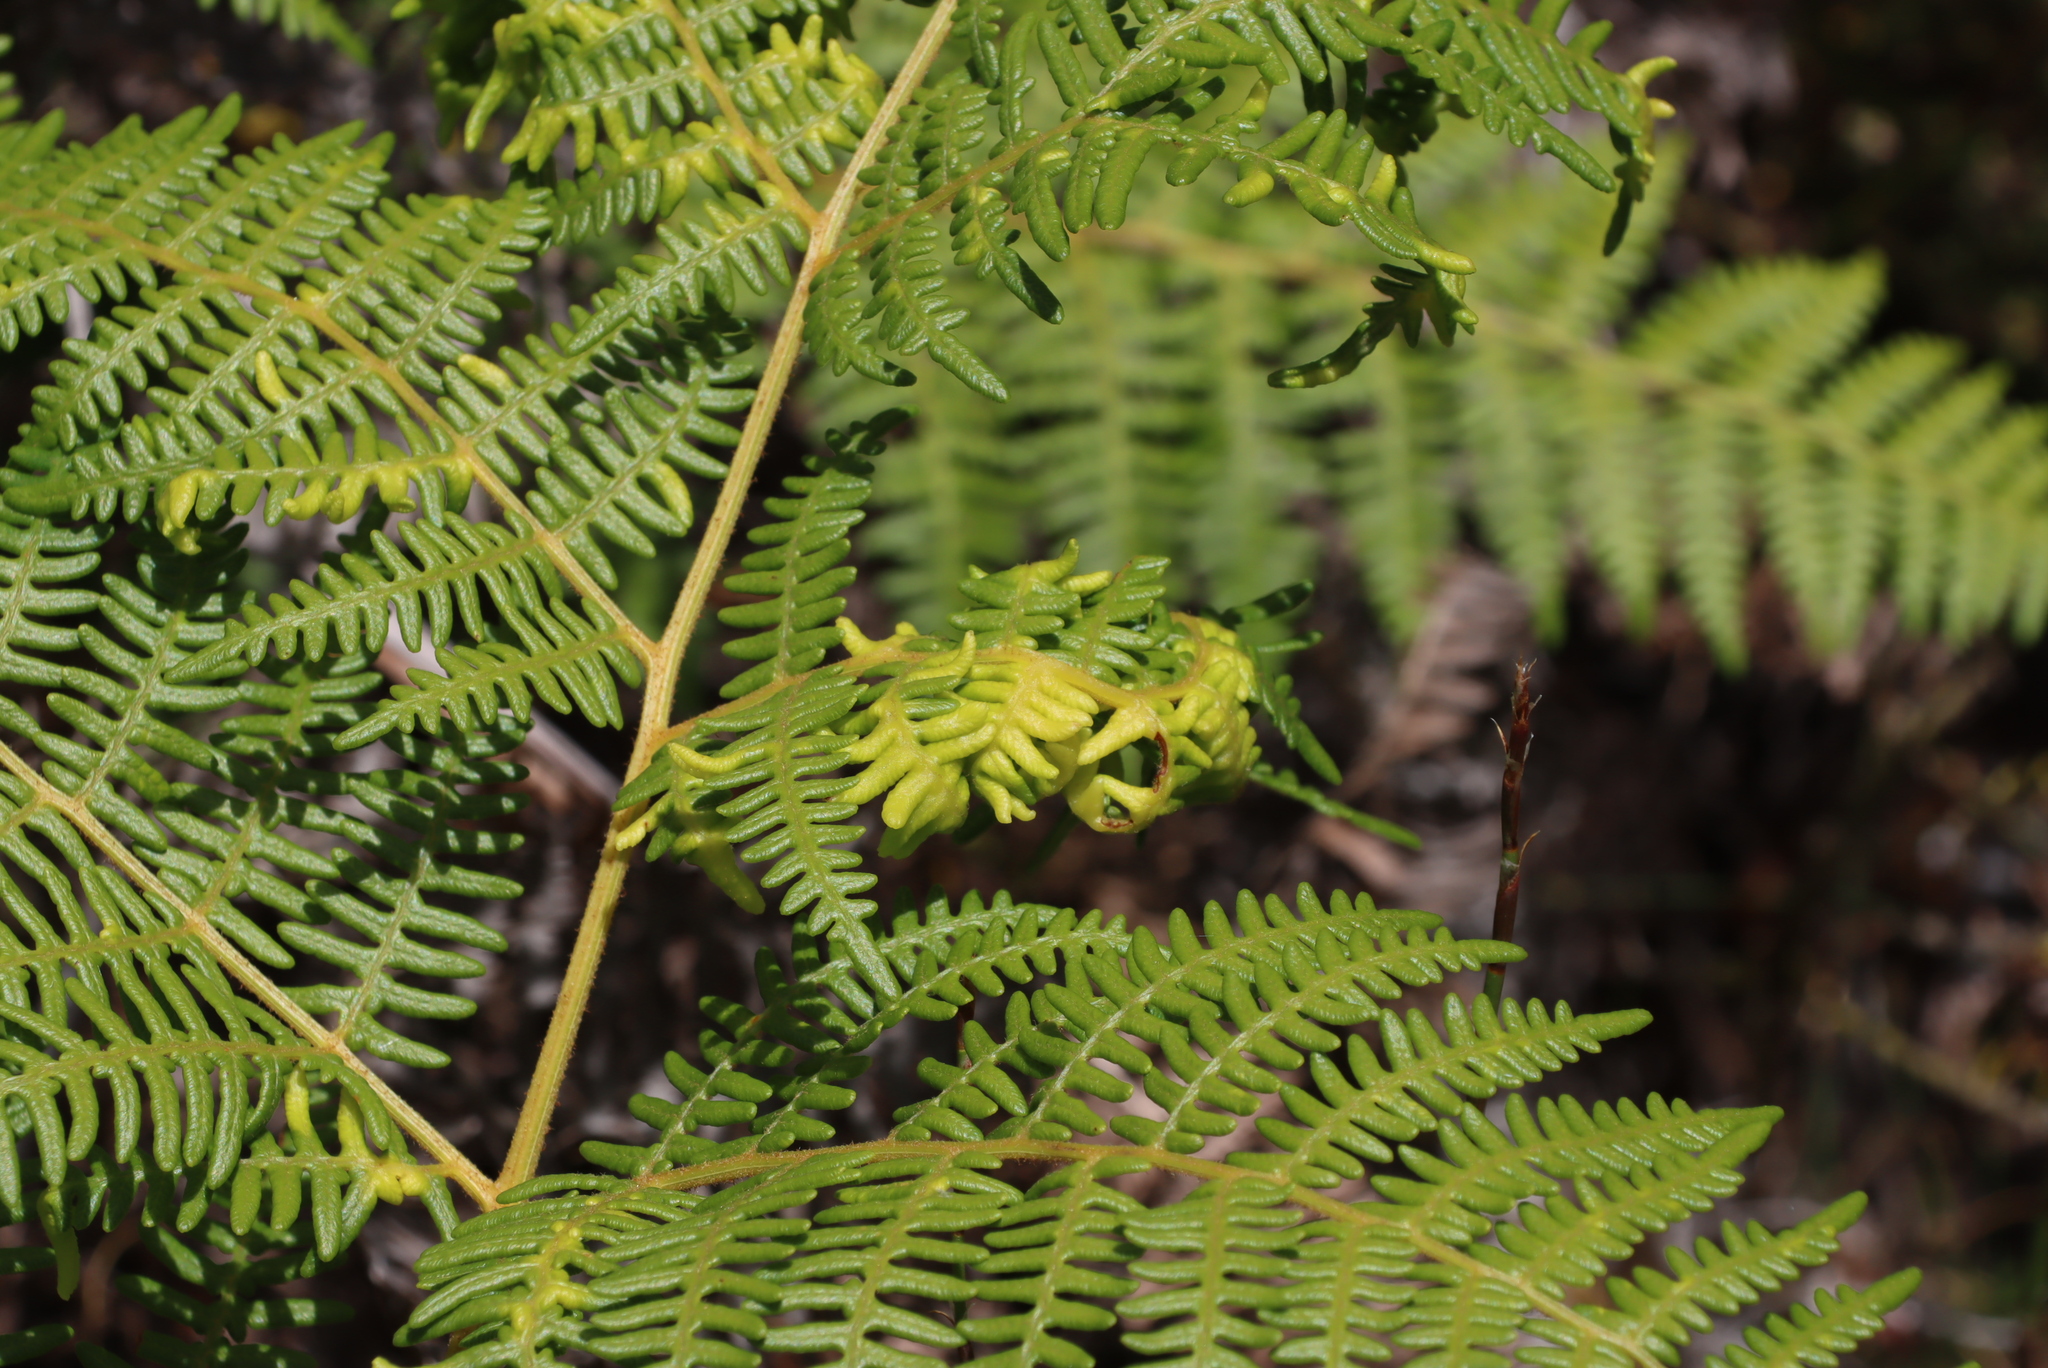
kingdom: Plantae
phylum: Tracheophyta
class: Polypodiopsida
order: Polypodiales
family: Dennstaedtiaceae
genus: Pteridium
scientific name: Pteridium aquilinum
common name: Bracken
